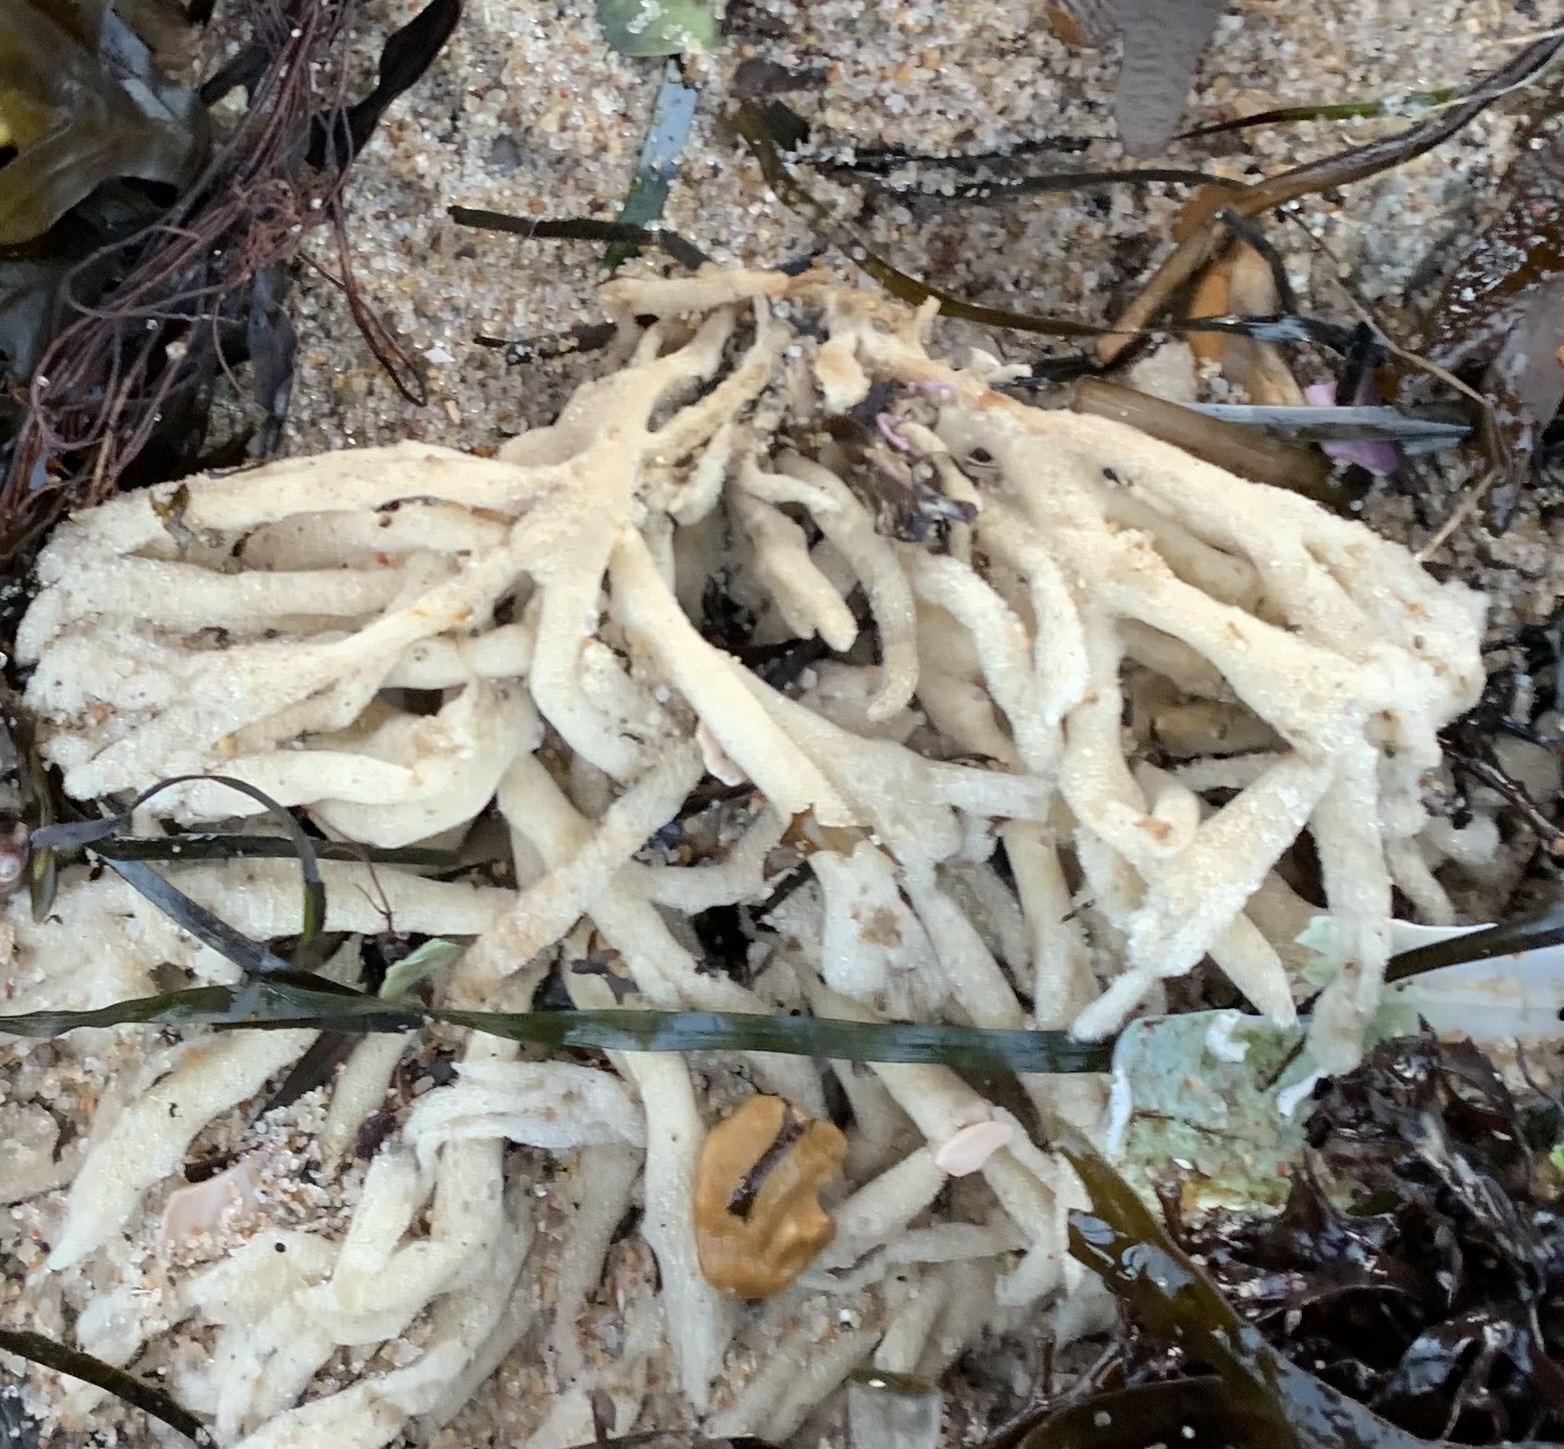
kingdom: Animalia
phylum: Porifera
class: Demospongiae
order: Haplosclerida
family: Chalinidae
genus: Haliclona
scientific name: Haliclona oculata
